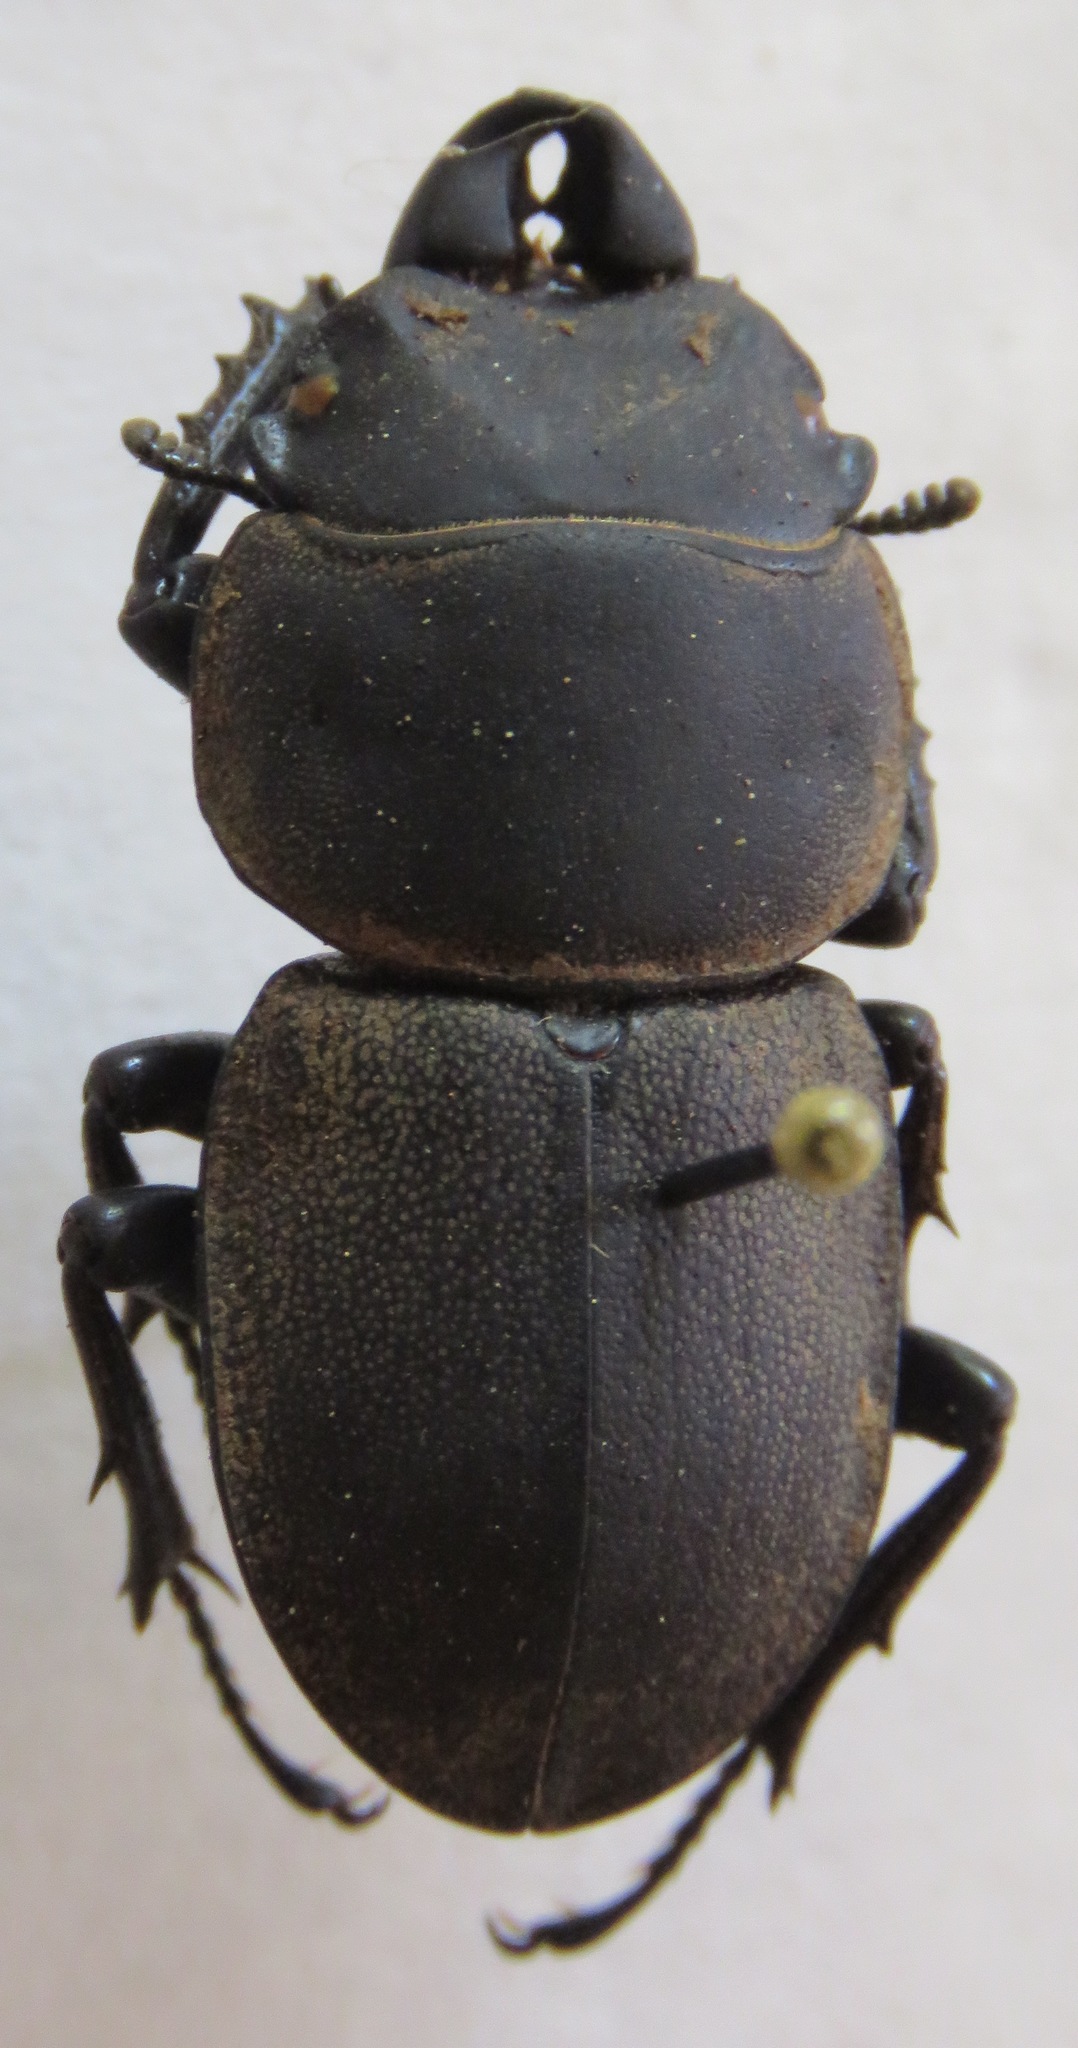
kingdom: Animalia
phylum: Arthropoda
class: Insecta
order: Coleoptera
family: Lucanidae
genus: Apterodorcus
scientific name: Apterodorcus bacchus
